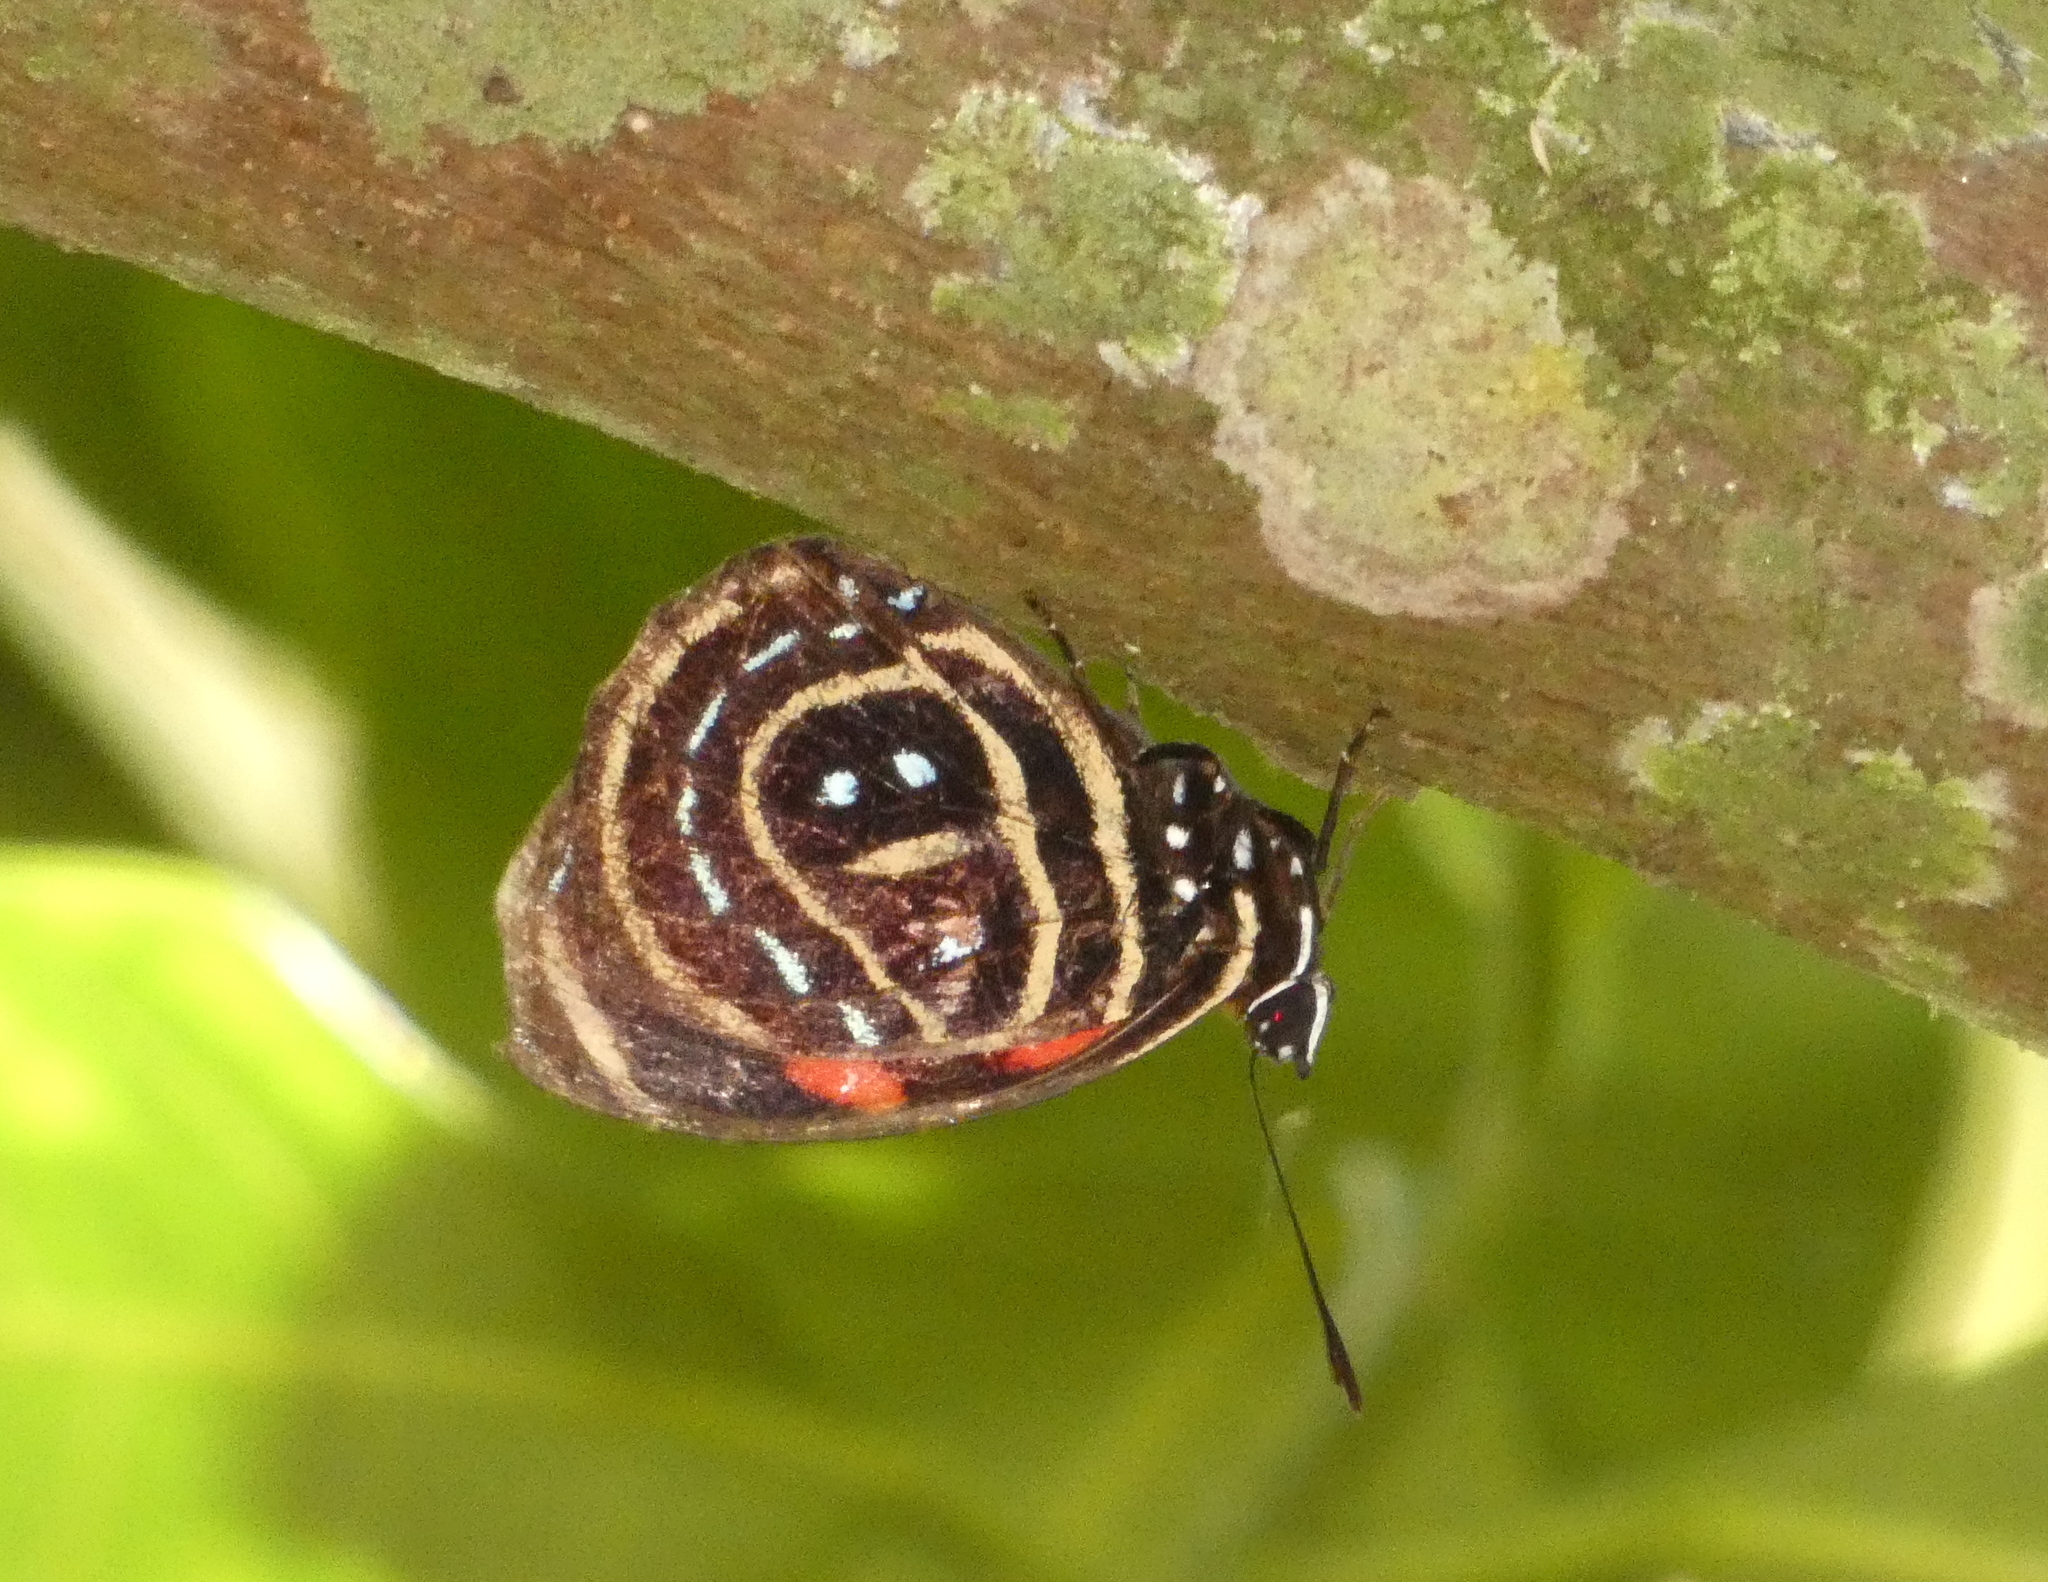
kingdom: Animalia
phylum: Arthropoda
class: Insecta
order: Lepidoptera
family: Nymphalidae
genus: Catagramma
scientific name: Catagramma astarte
